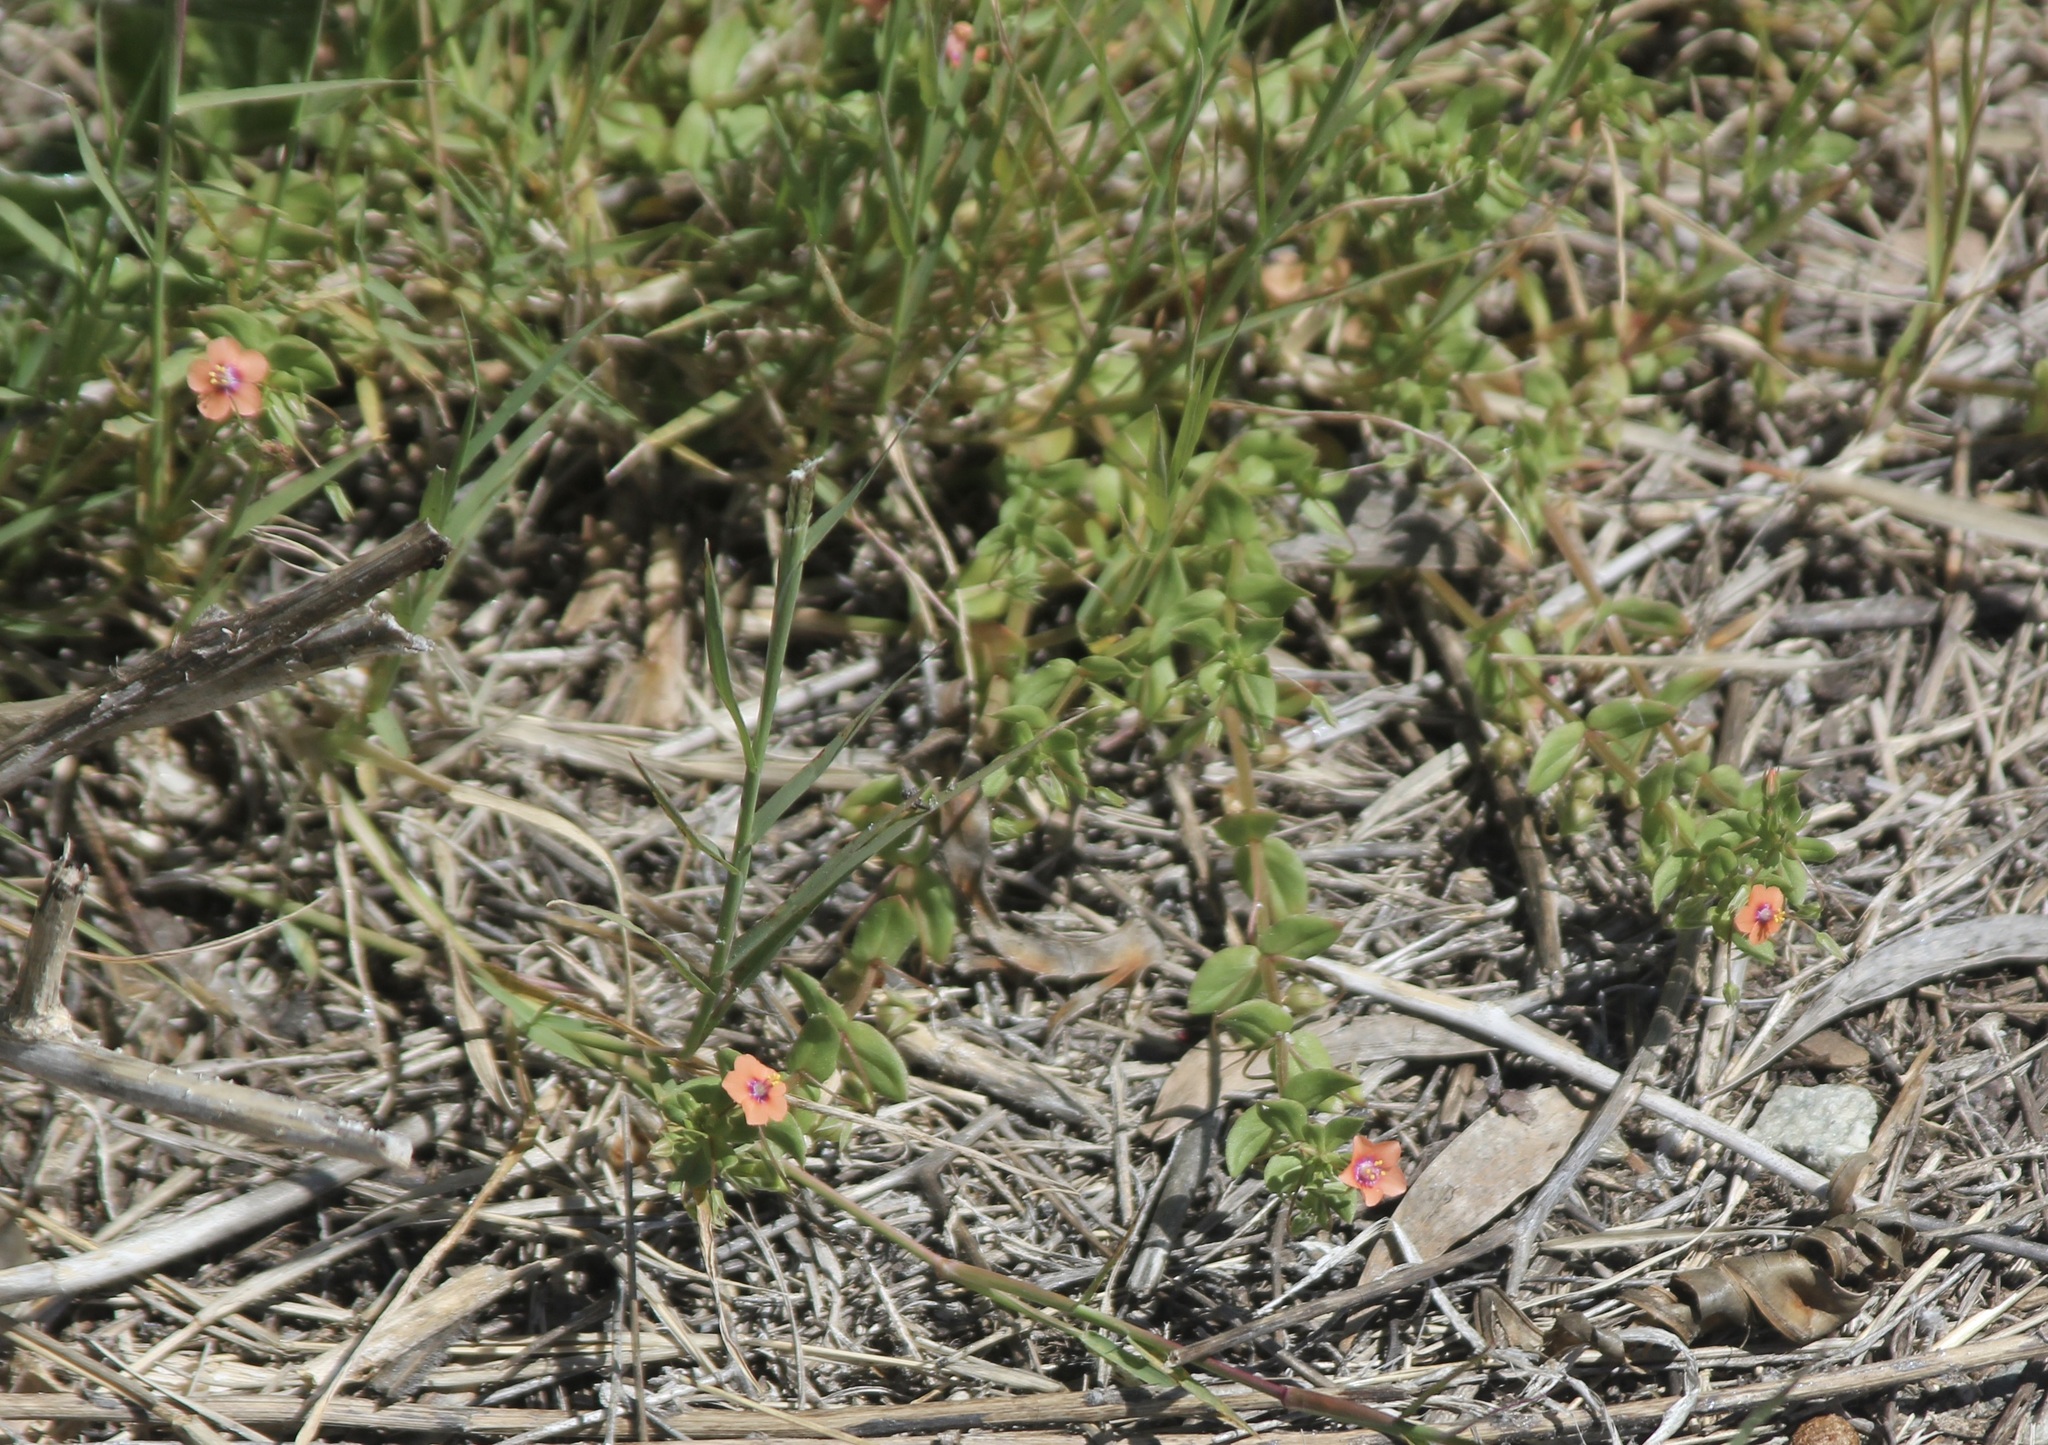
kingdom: Plantae
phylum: Tracheophyta
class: Magnoliopsida
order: Ericales
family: Primulaceae
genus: Lysimachia
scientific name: Lysimachia arvensis
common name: Scarlet pimpernel
